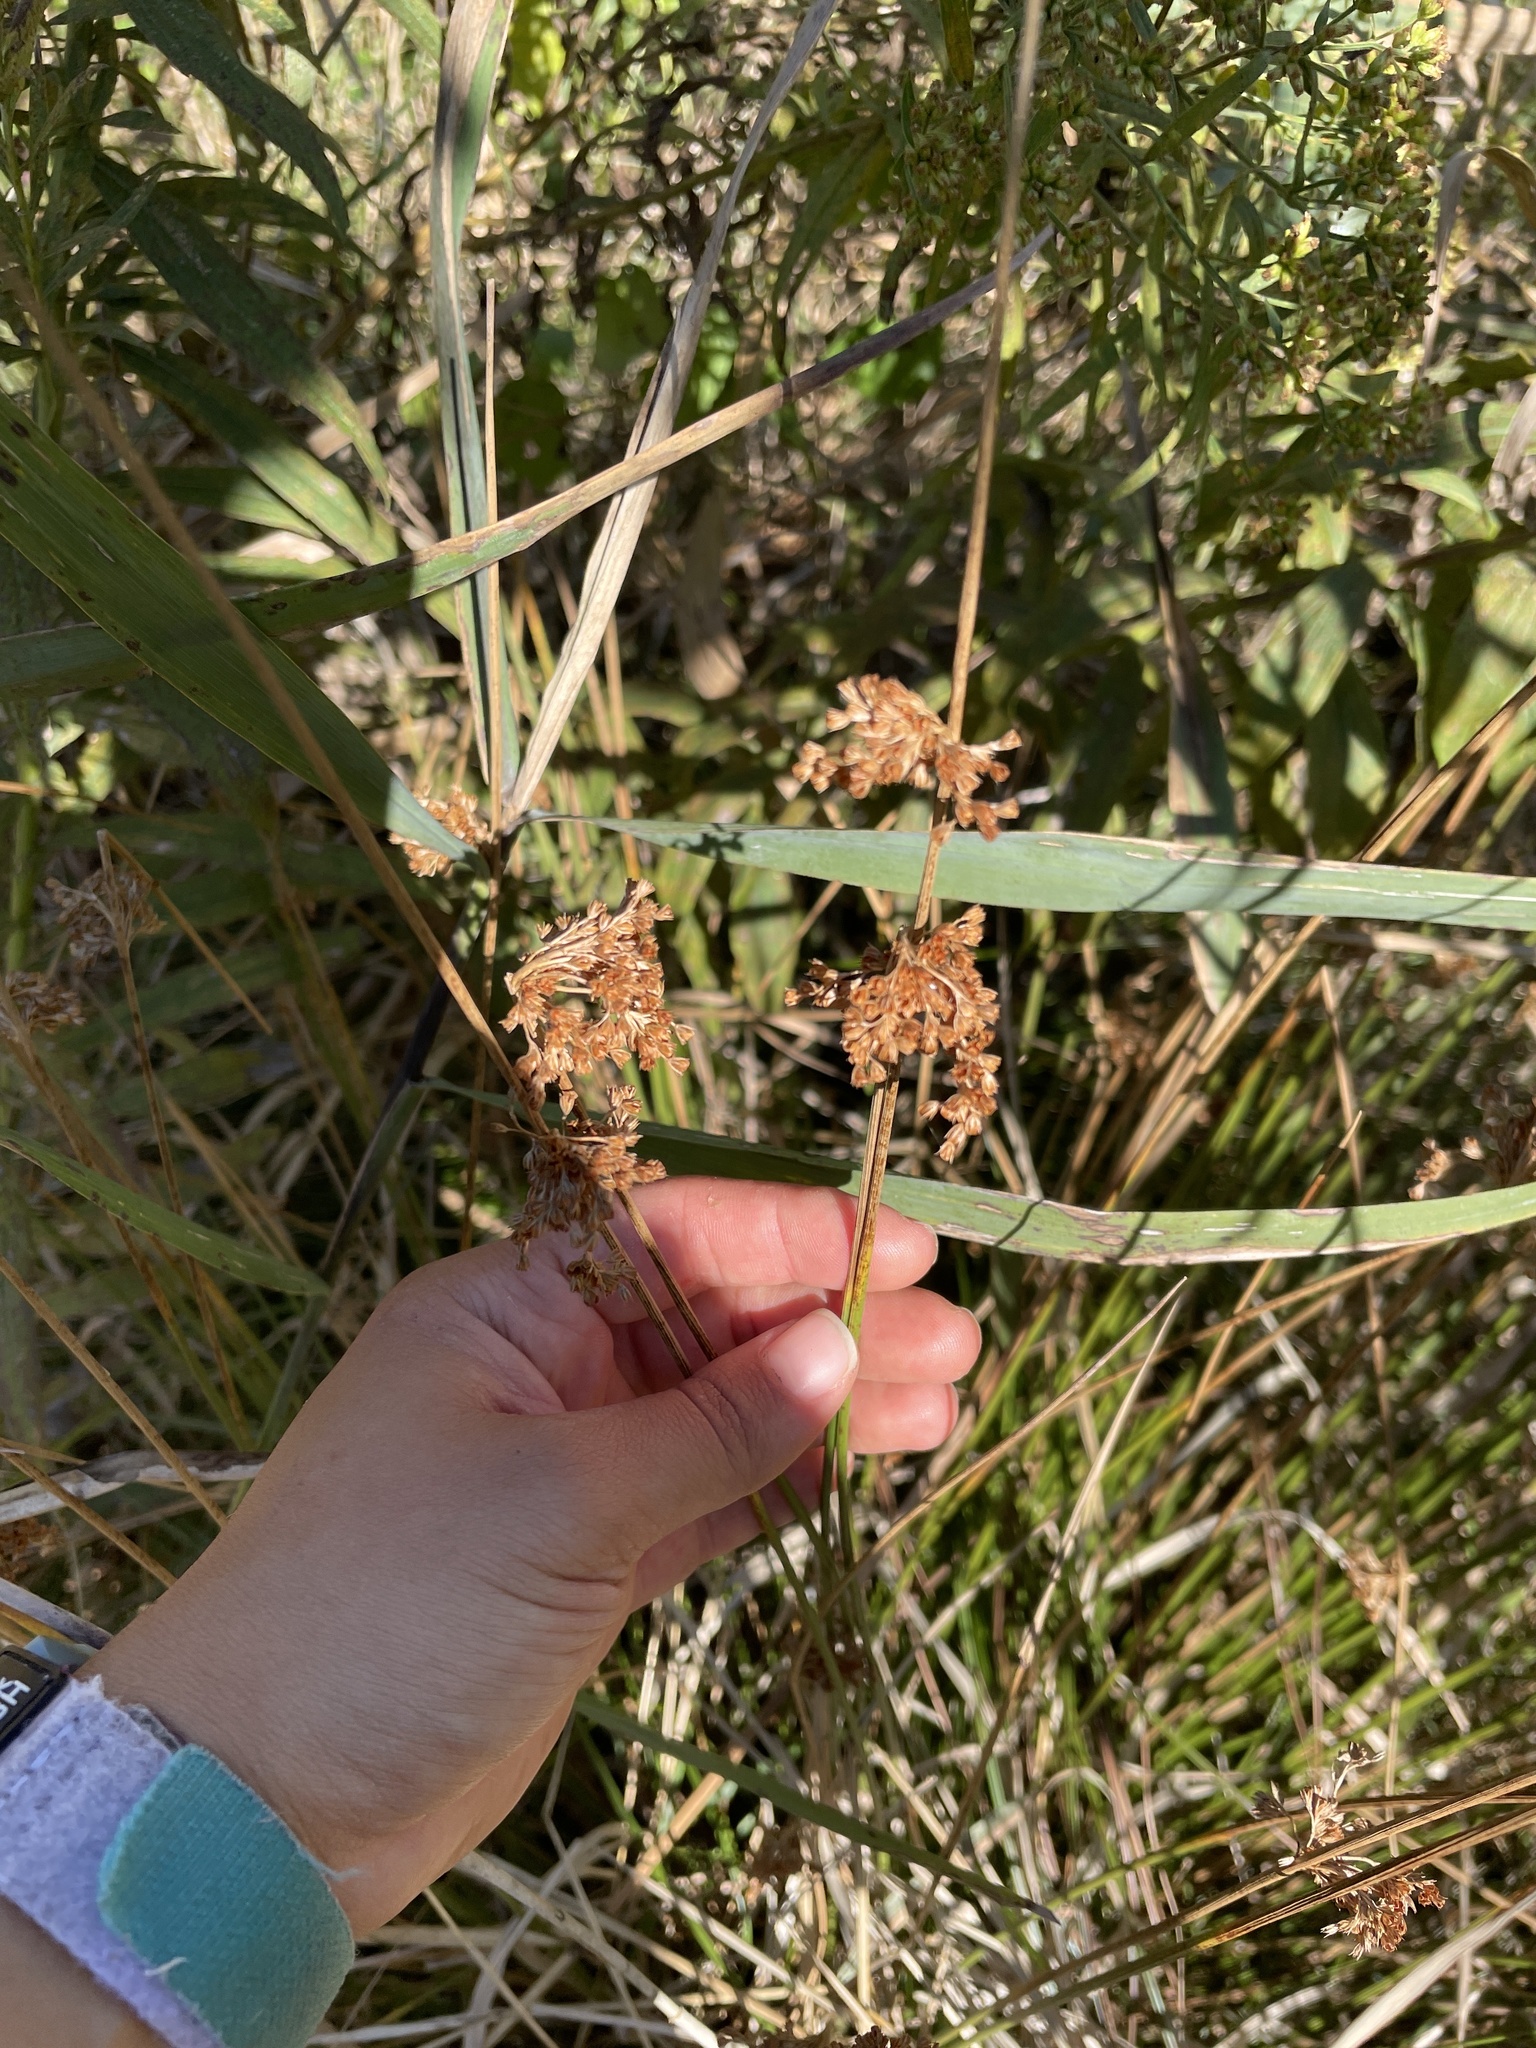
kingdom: Plantae
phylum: Tracheophyta
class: Liliopsida
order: Poales
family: Cyperaceae
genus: Scirpus
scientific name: Scirpus cyperinus
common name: Black-sheathed bulrush
